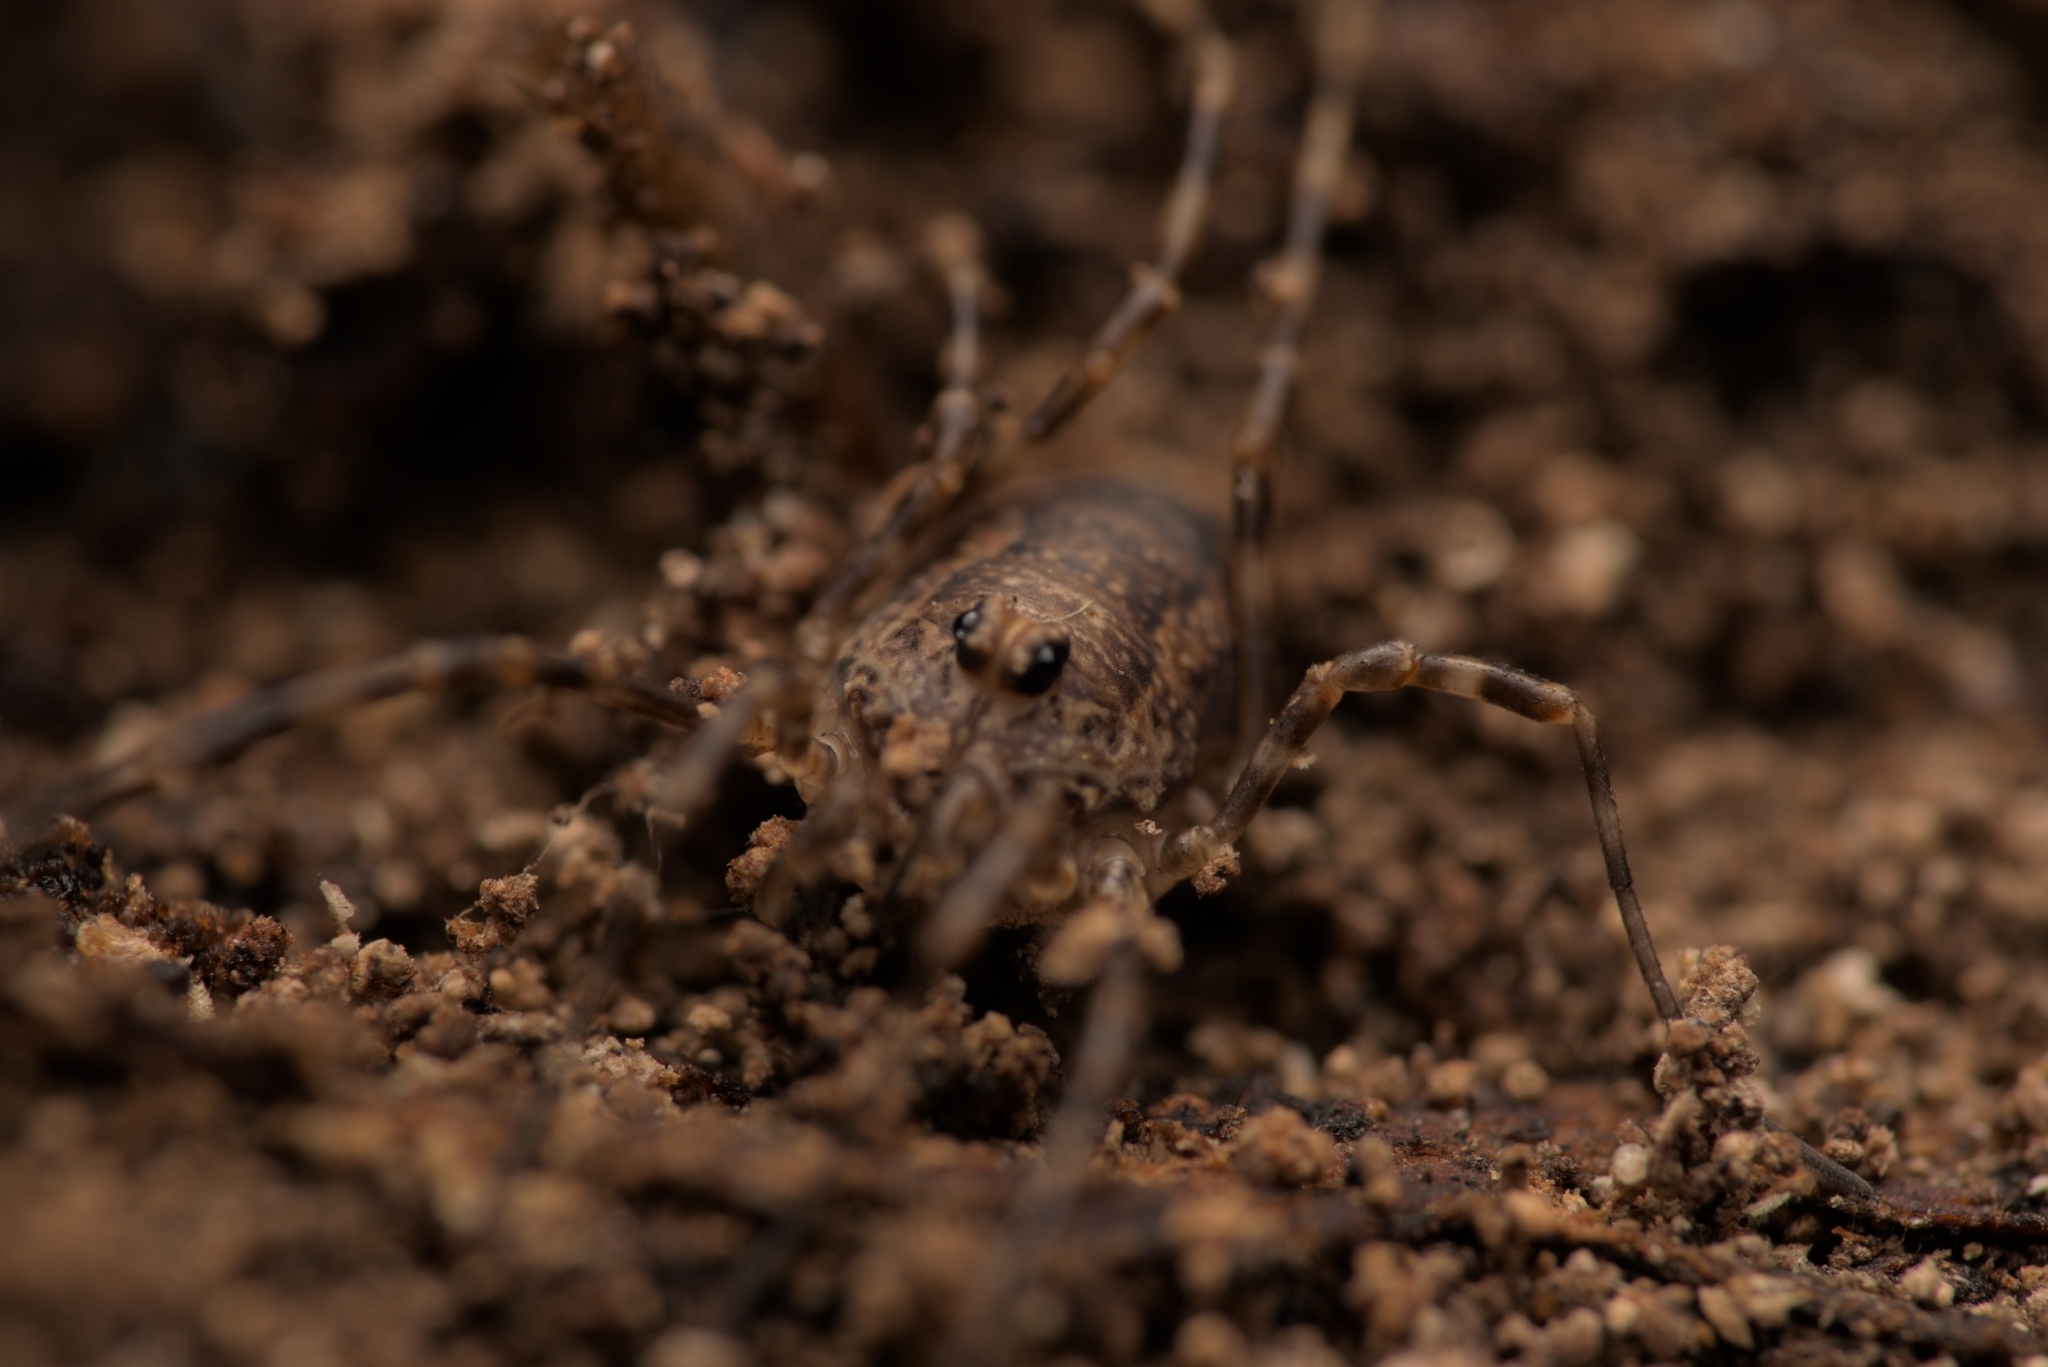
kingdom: Animalia
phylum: Arthropoda
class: Arachnida
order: Opiliones
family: Phalangiidae
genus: Rilaena
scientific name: Rilaena triangularis
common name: Spring harvestman
